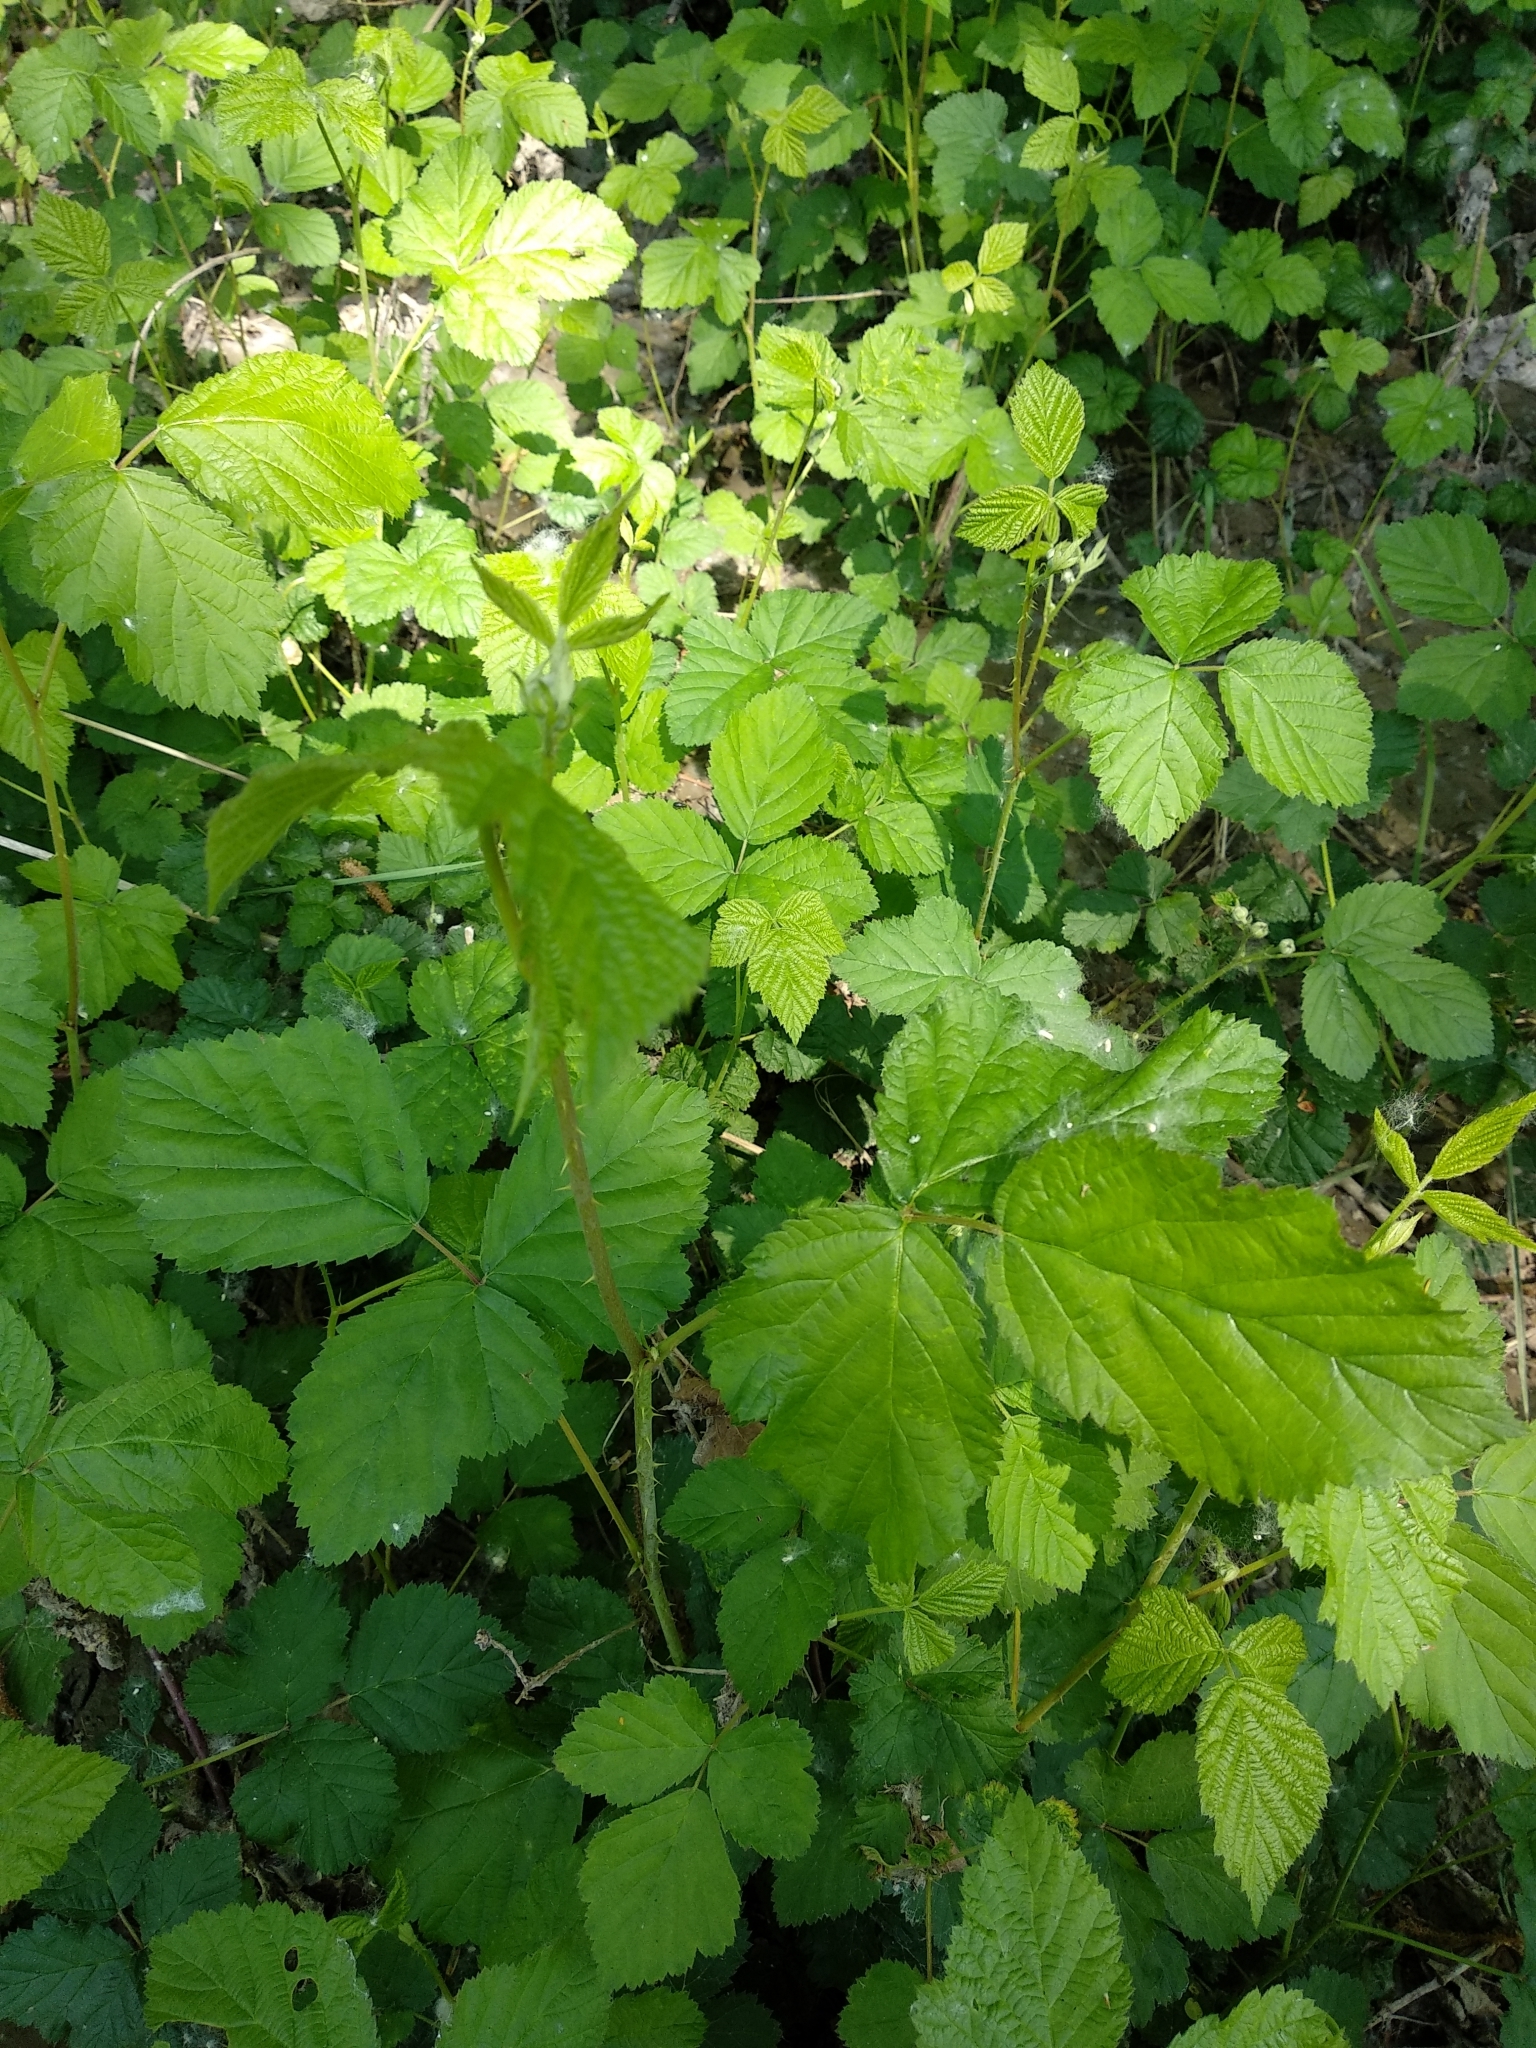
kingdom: Plantae
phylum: Tracheophyta
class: Magnoliopsida
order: Rosales
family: Rosaceae
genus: Rubus
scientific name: Rubus caesius
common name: Dewberry
